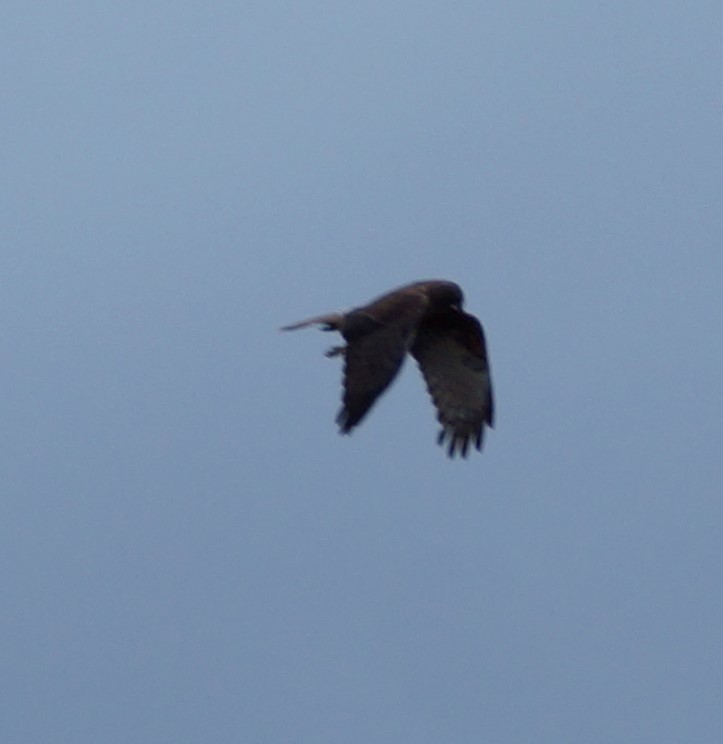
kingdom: Animalia
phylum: Chordata
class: Aves
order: Accipitriformes
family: Accipitridae
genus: Circus
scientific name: Circus approximans
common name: Swamp harrier
